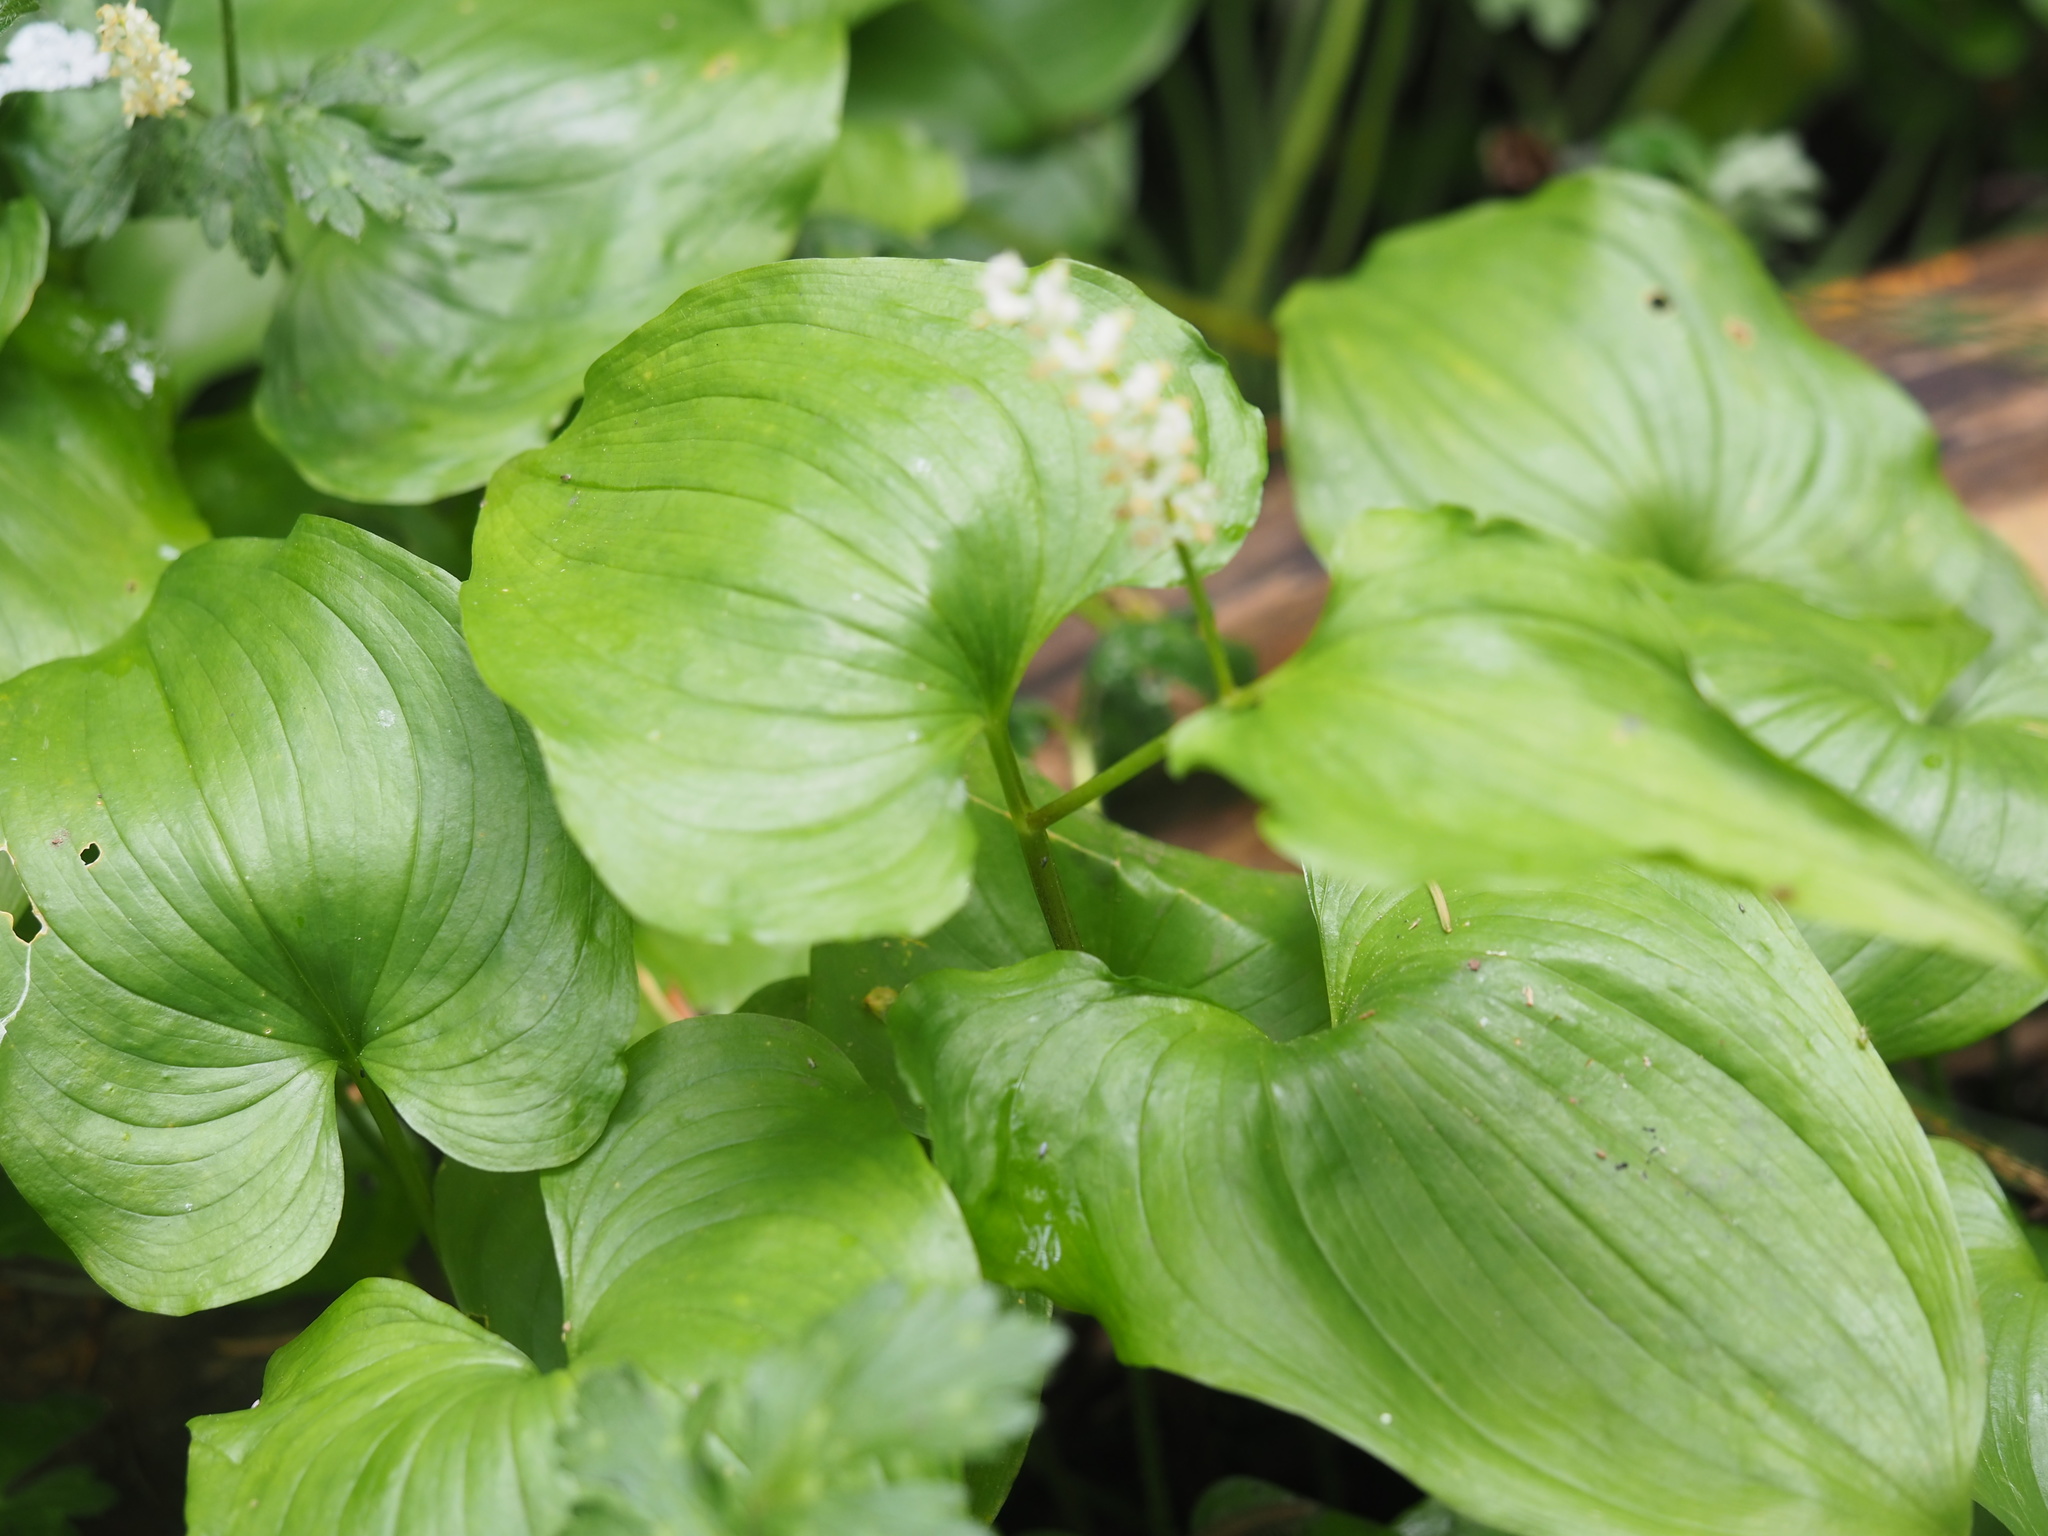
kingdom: Plantae
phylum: Tracheophyta
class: Liliopsida
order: Asparagales
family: Asparagaceae
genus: Maianthemum
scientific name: Maianthemum dilatatum
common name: False lily-of-the-valley
